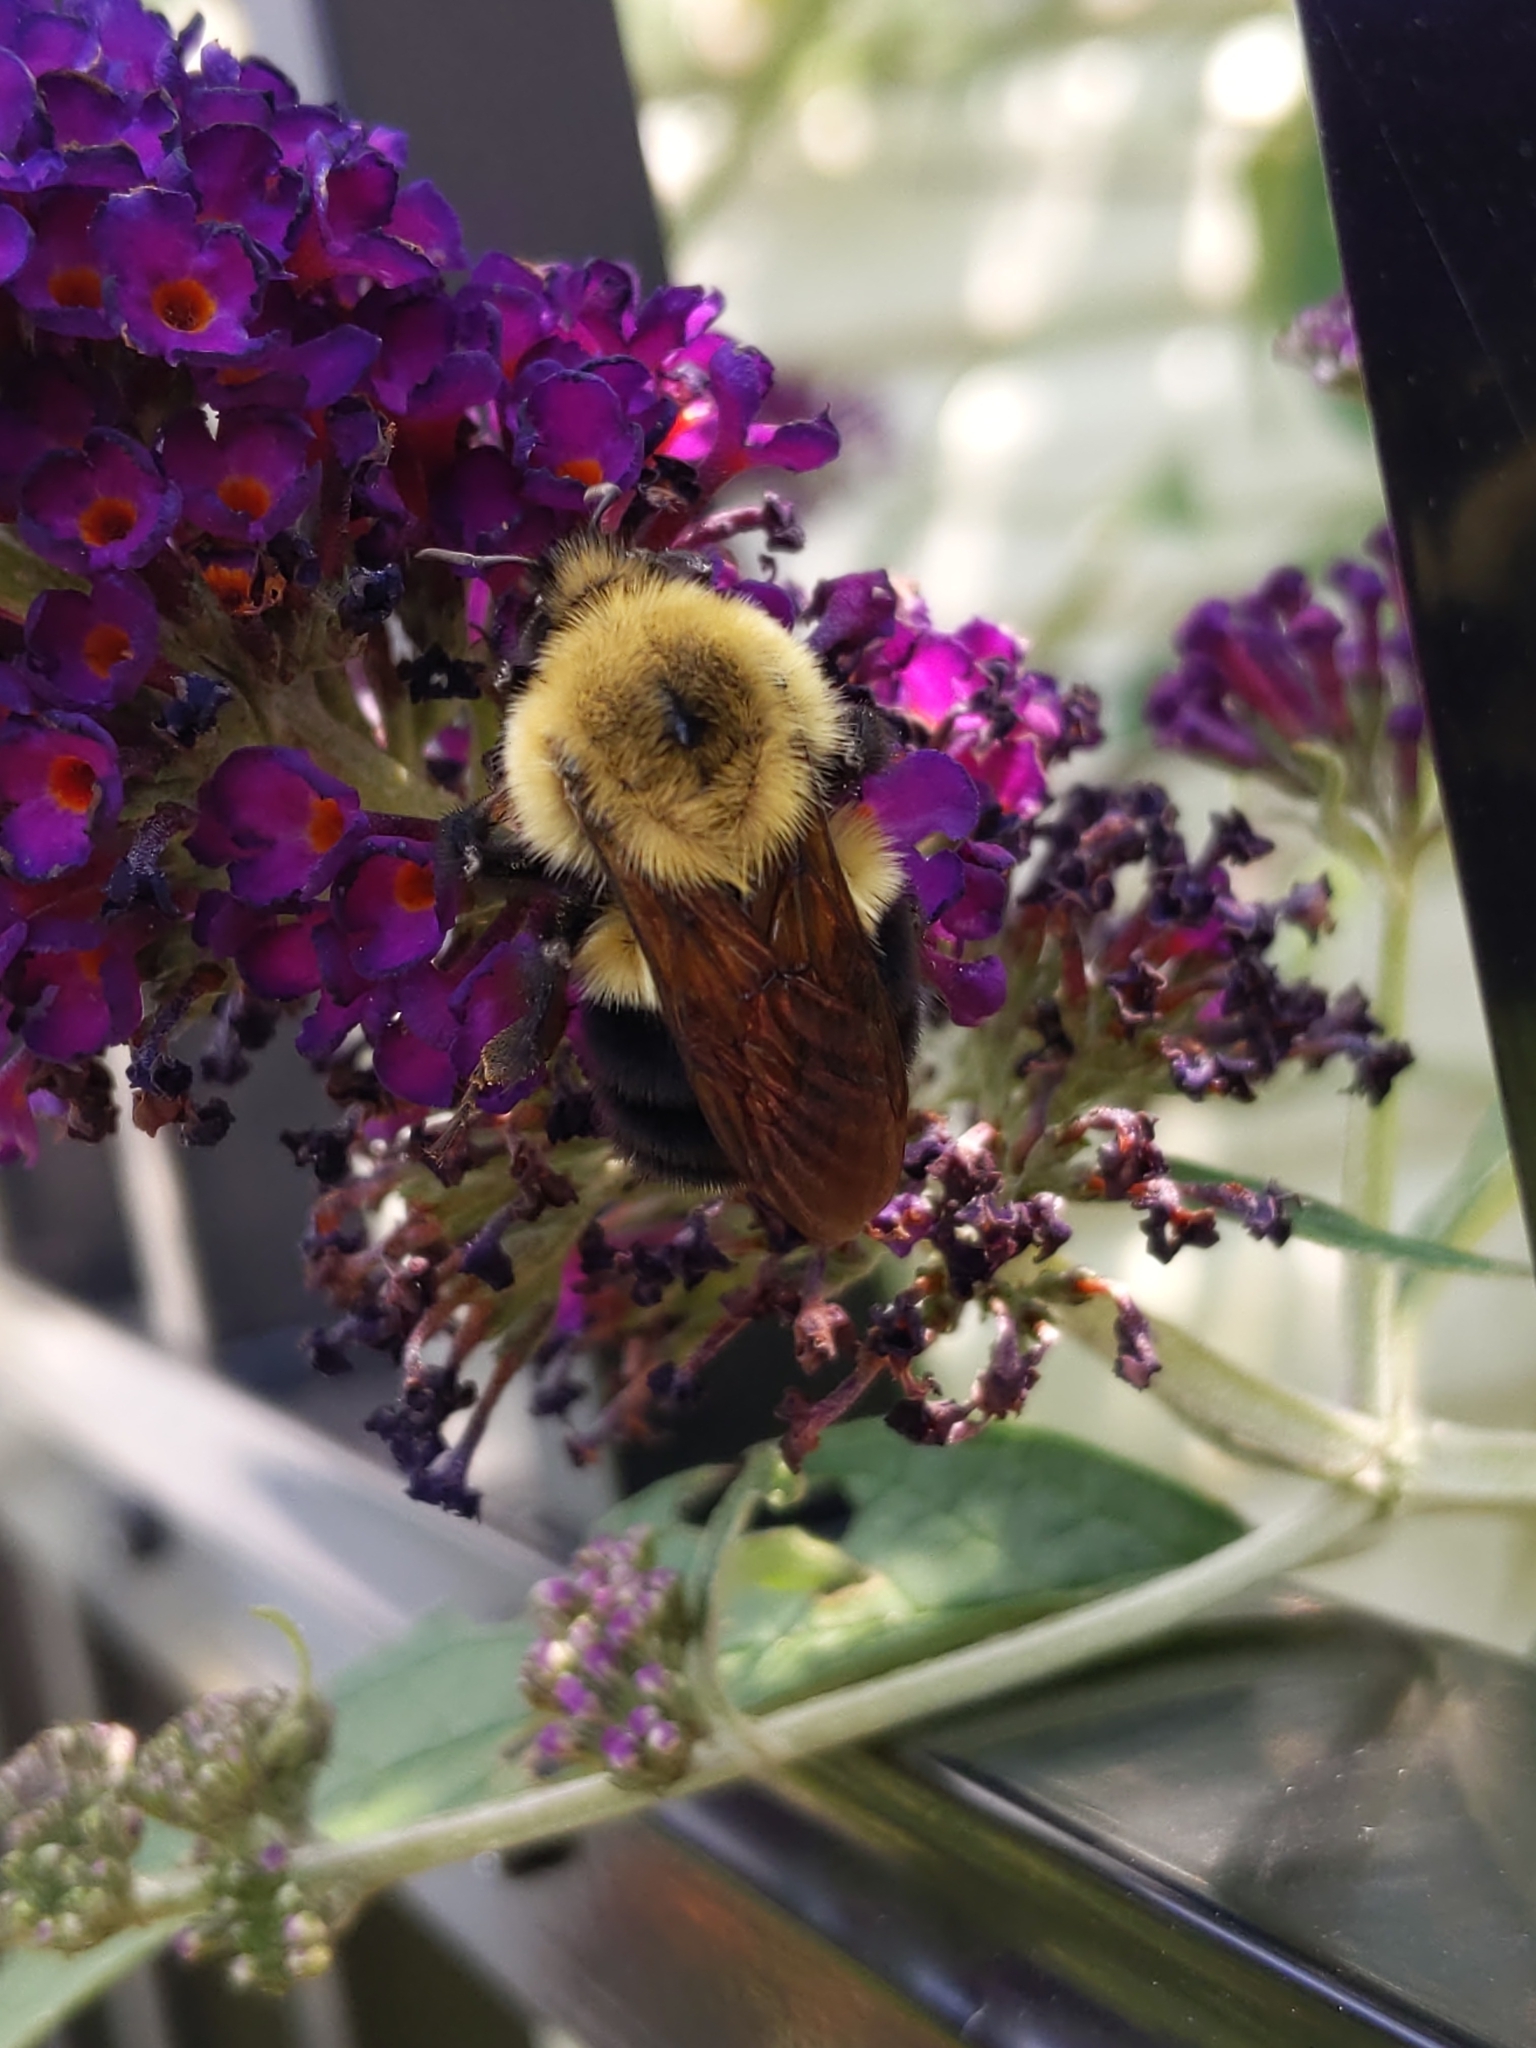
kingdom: Animalia
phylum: Arthropoda
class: Insecta
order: Hymenoptera
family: Apidae
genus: Bombus
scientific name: Bombus bimaculatus
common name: Two-spotted bumble bee
